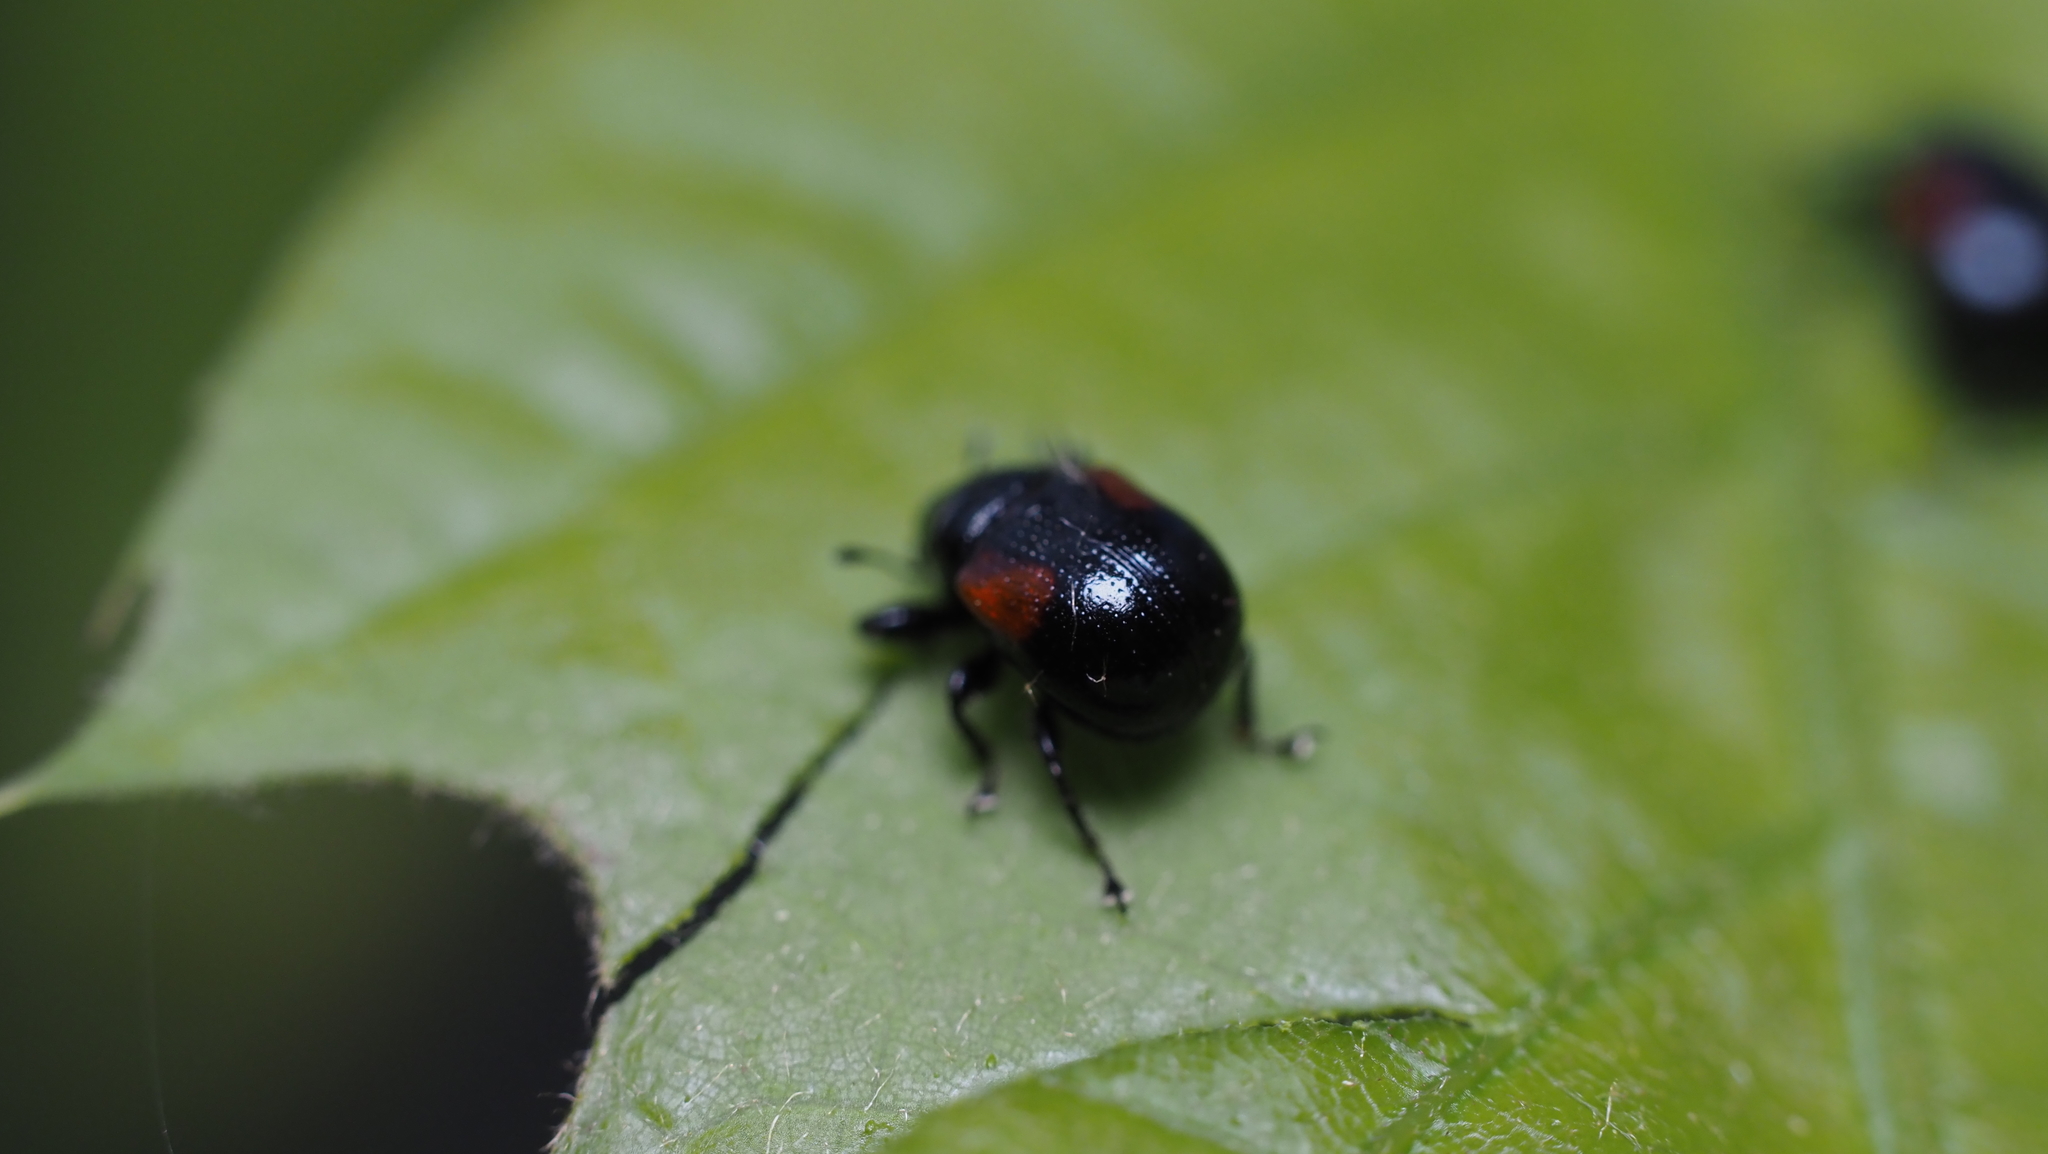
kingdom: Animalia
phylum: Arthropoda
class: Insecta
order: Coleoptera
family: Attelabidae
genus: Attelabus
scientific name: Attelabus bipustulatus
